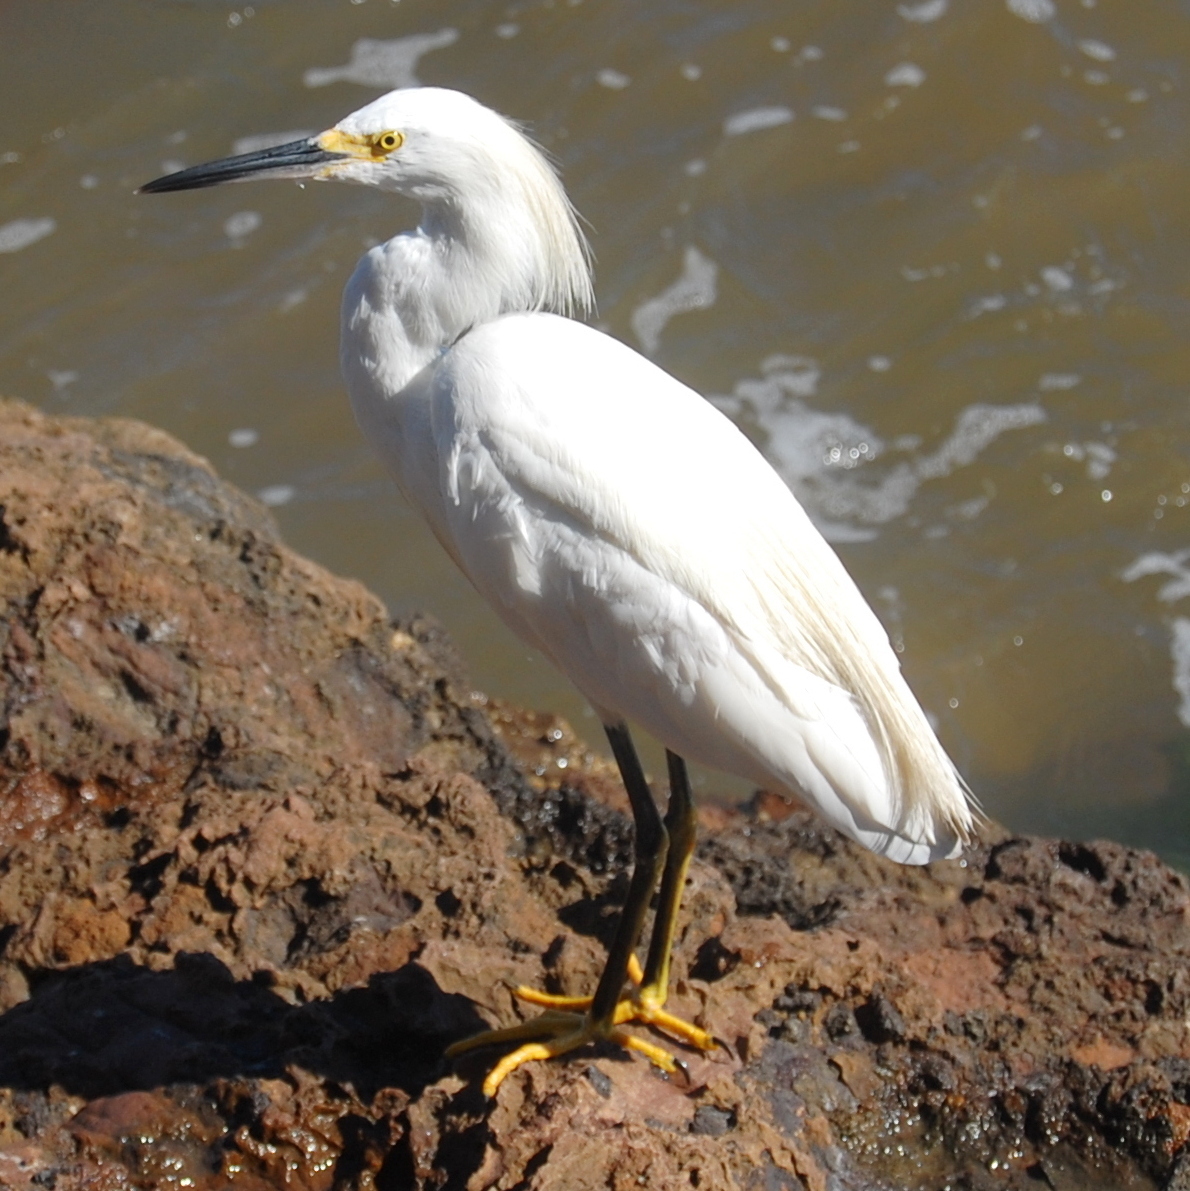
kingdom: Animalia
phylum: Chordata
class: Aves
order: Pelecaniformes
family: Ardeidae
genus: Egretta
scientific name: Egretta thula
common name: Snowy egret
